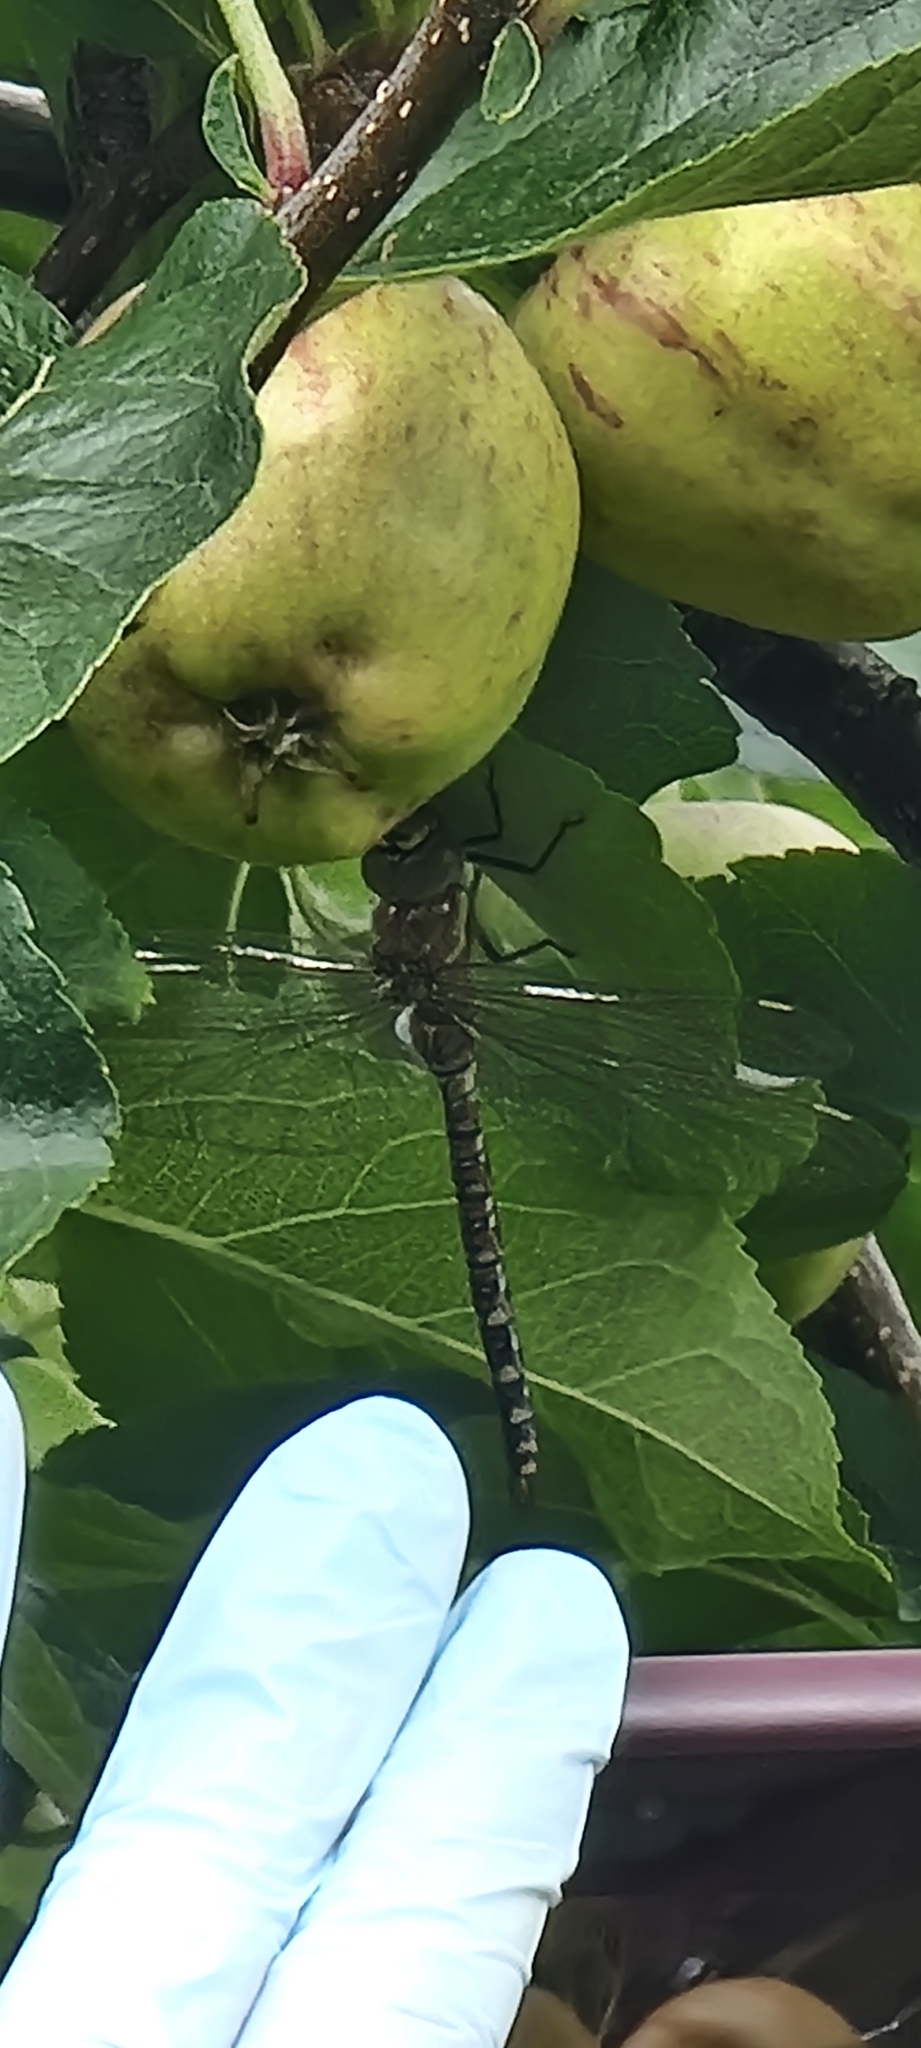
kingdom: Animalia
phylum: Arthropoda
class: Insecta
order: Odonata
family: Aeshnidae
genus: Aeshna
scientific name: Aeshna mixta
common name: Migrant hawker
